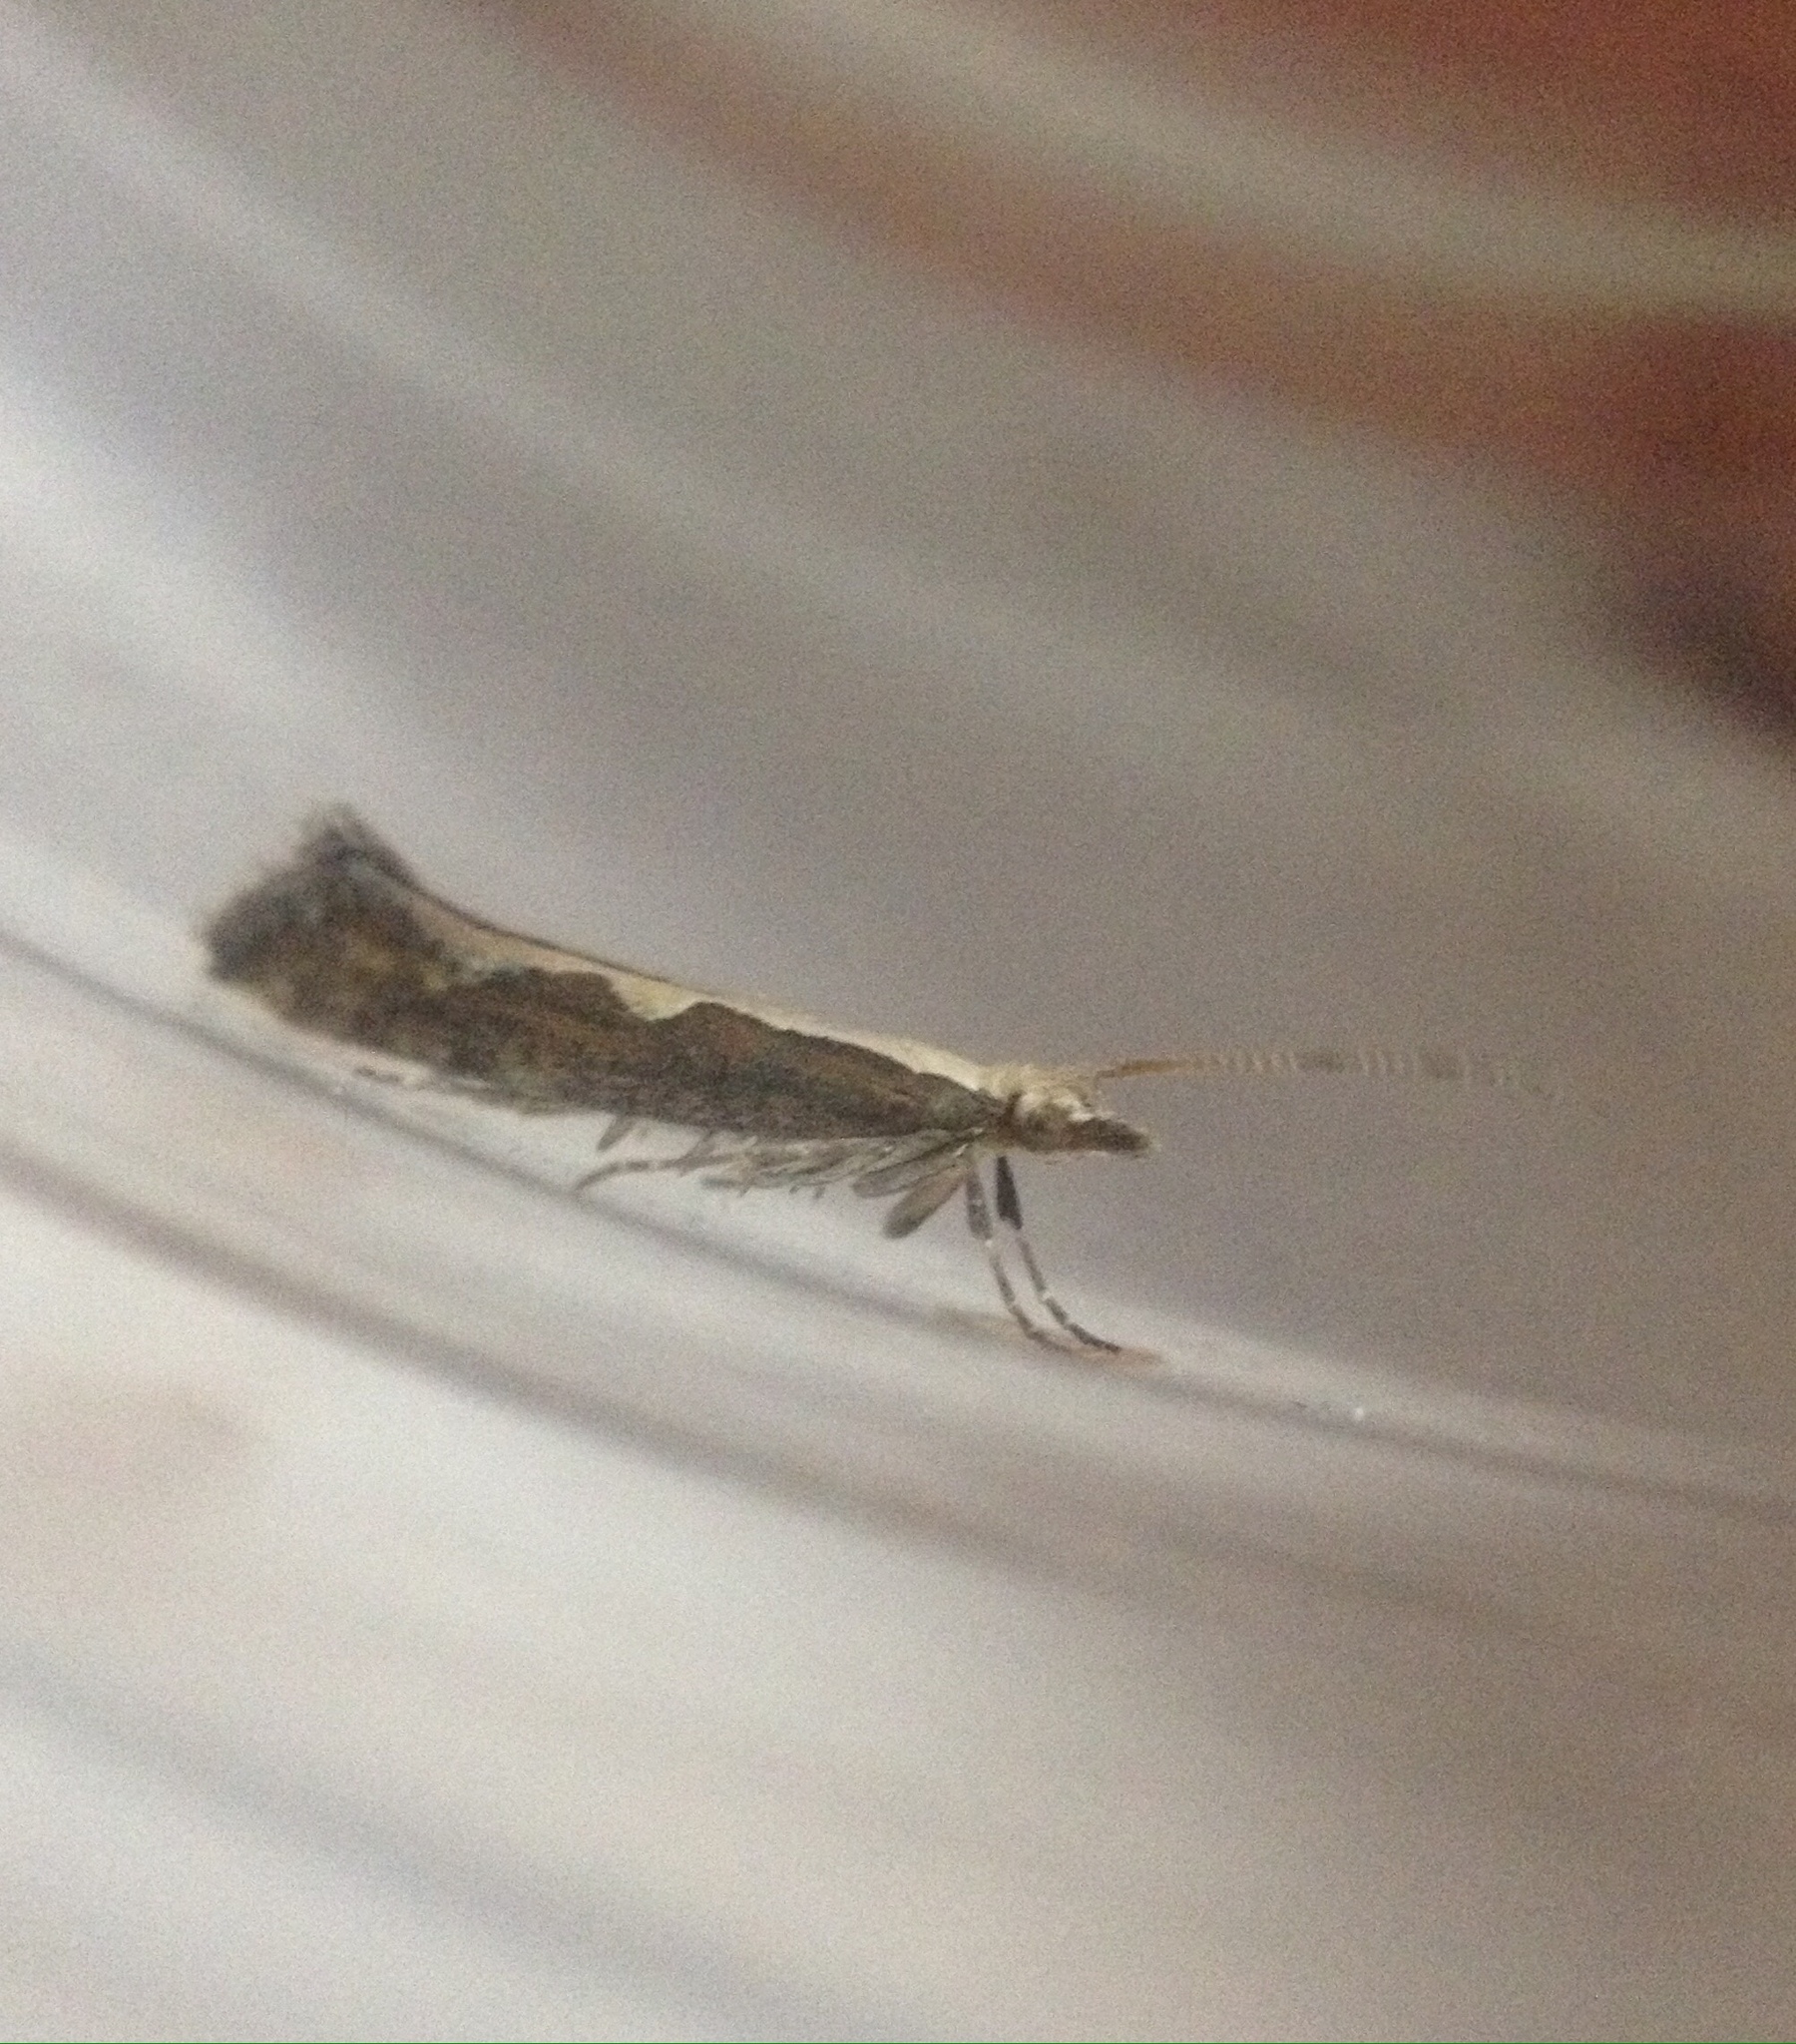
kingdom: Animalia
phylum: Arthropoda
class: Insecta
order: Lepidoptera
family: Plutellidae
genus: Plutella
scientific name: Plutella xylostella
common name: Diamond-back moth
